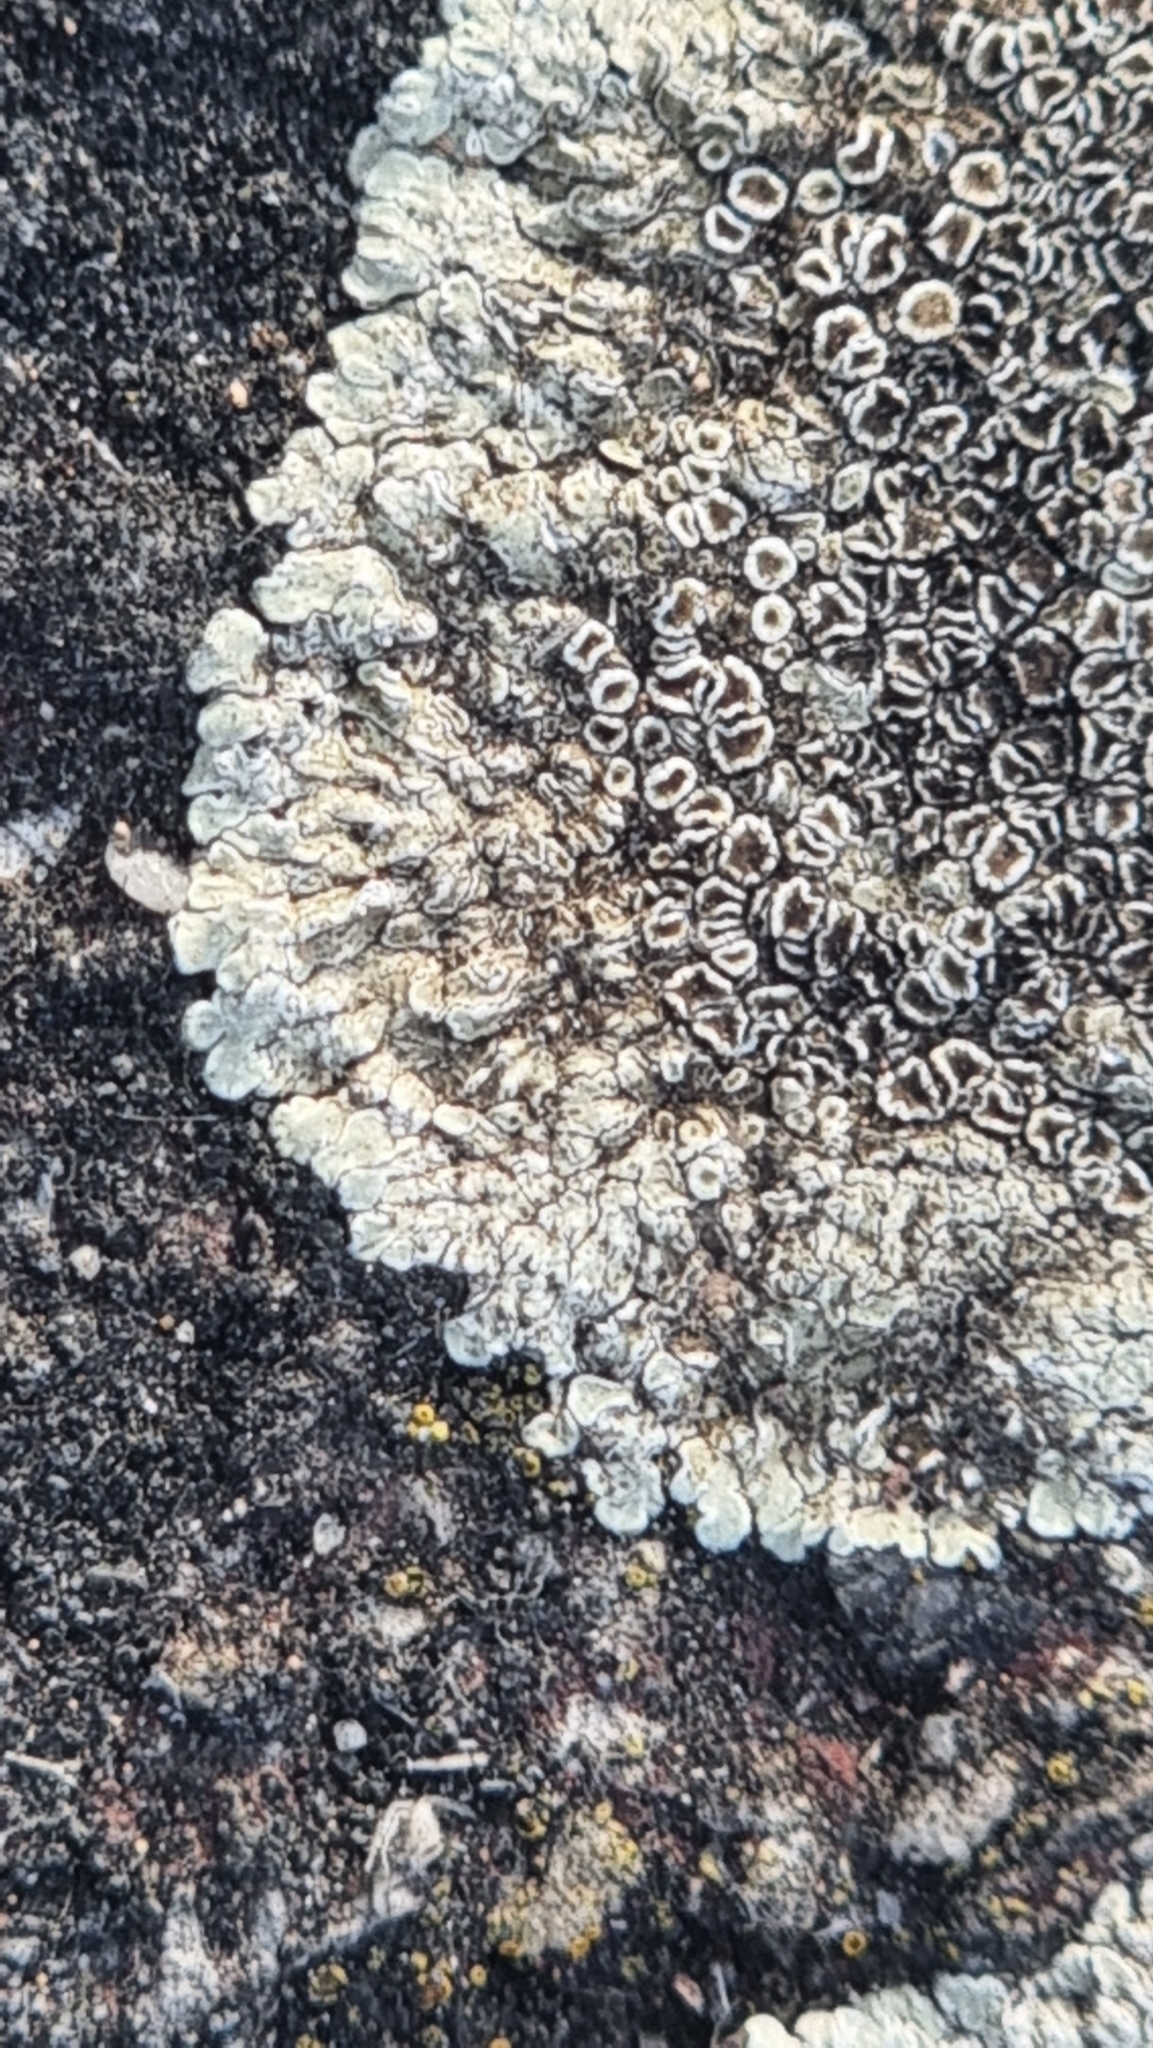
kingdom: Fungi
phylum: Ascomycota
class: Lecanoromycetes
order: Lecanorales
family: Lecanoraceae
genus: Protoparmeliopsis
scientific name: Protoparmeliopsis muralis
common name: Stonewall rim lichen
